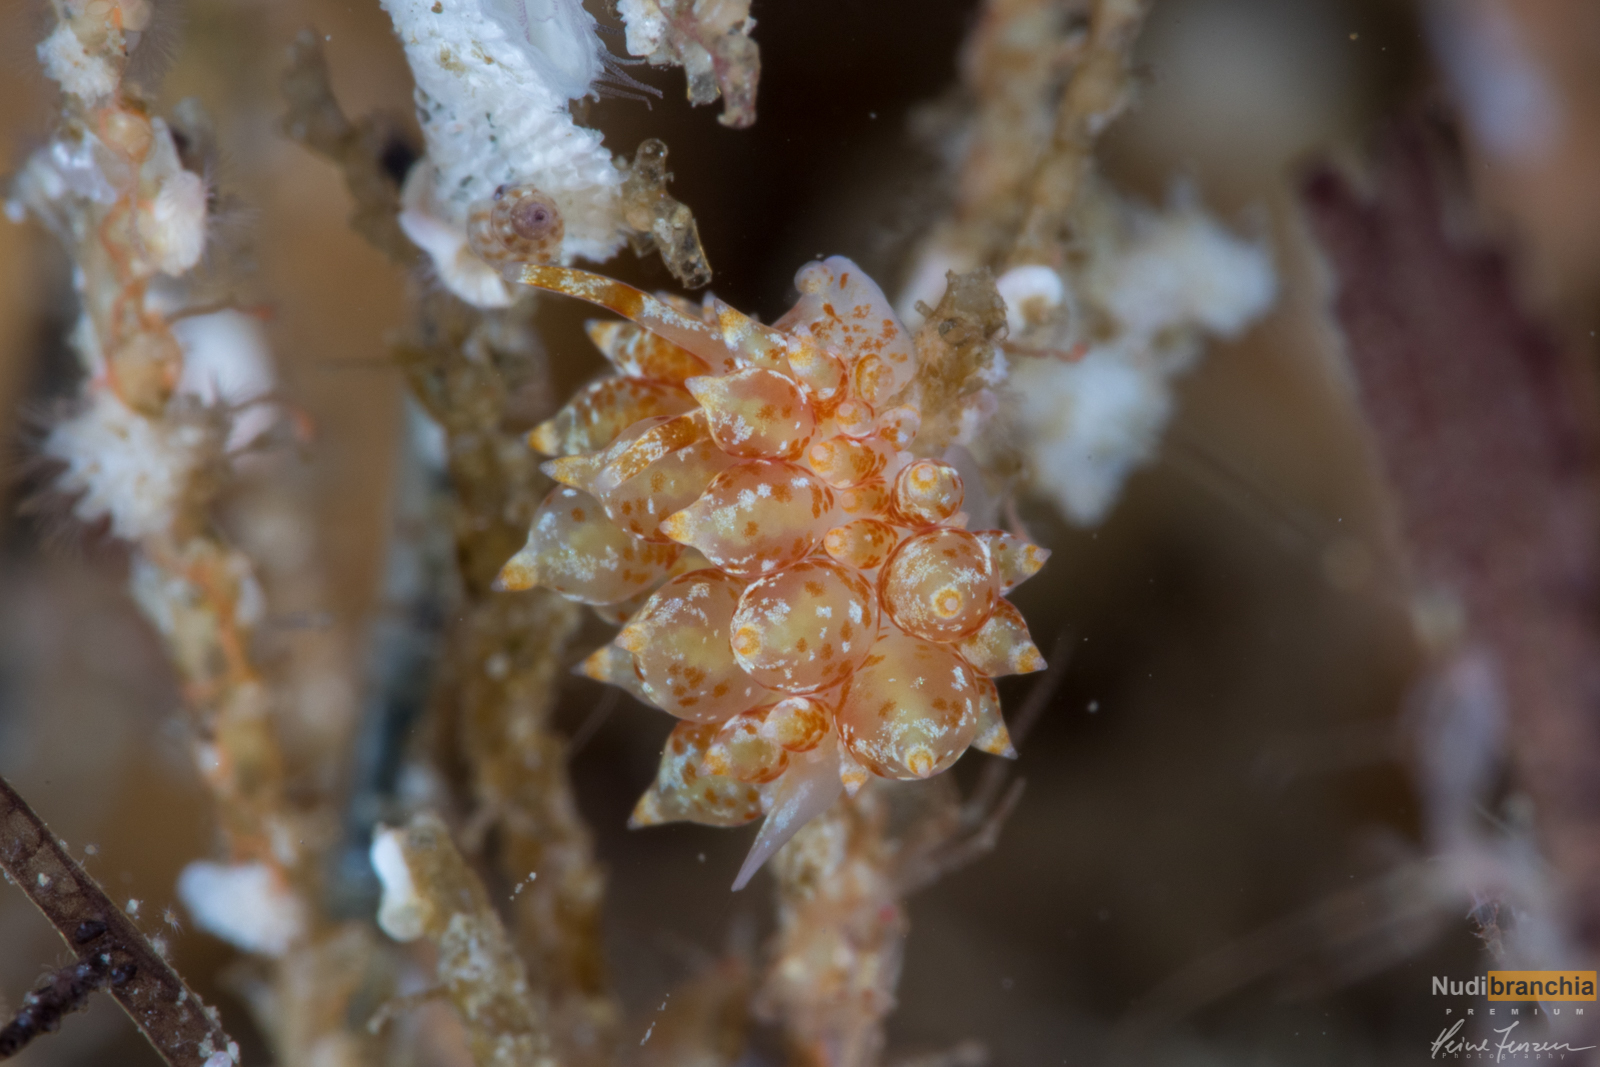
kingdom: Animalia
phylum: Mollusca
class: Gastropoda
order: Nudibranchia
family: Eubranchidae
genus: Amphorina
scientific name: Amphorina pallida
